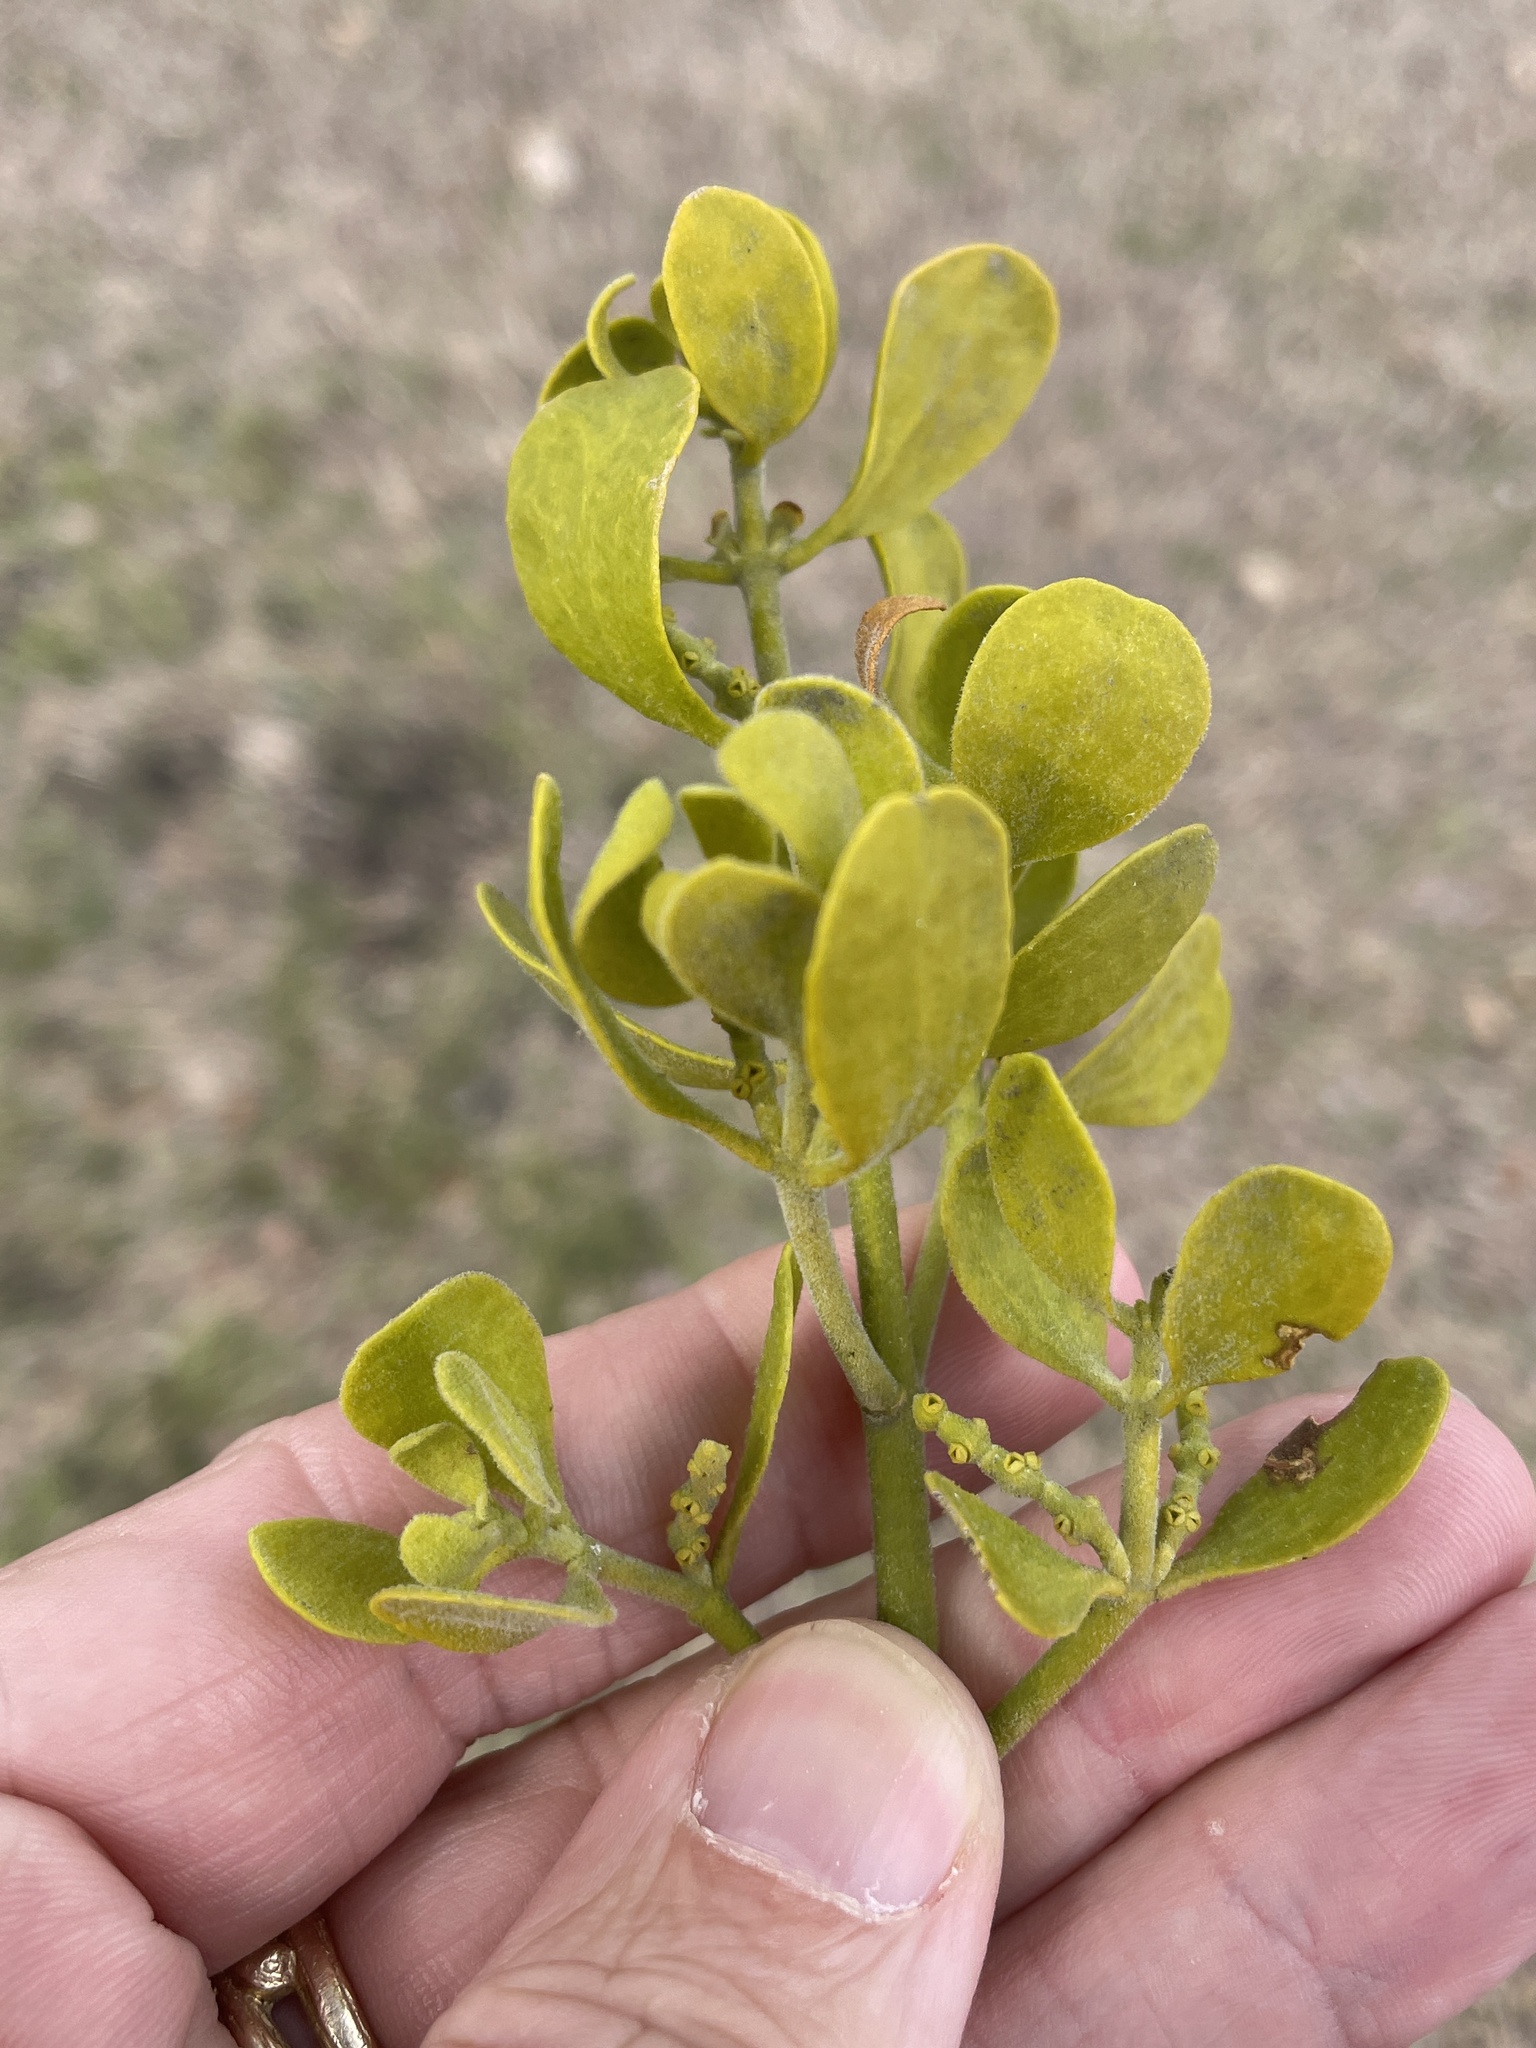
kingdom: Plantae
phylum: Tracheophyta
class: Magnoliopsida
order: Santalales
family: Viscaceae
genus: Phoradendron
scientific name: Phoradendron leucarpum
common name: Pacific mistletoe
